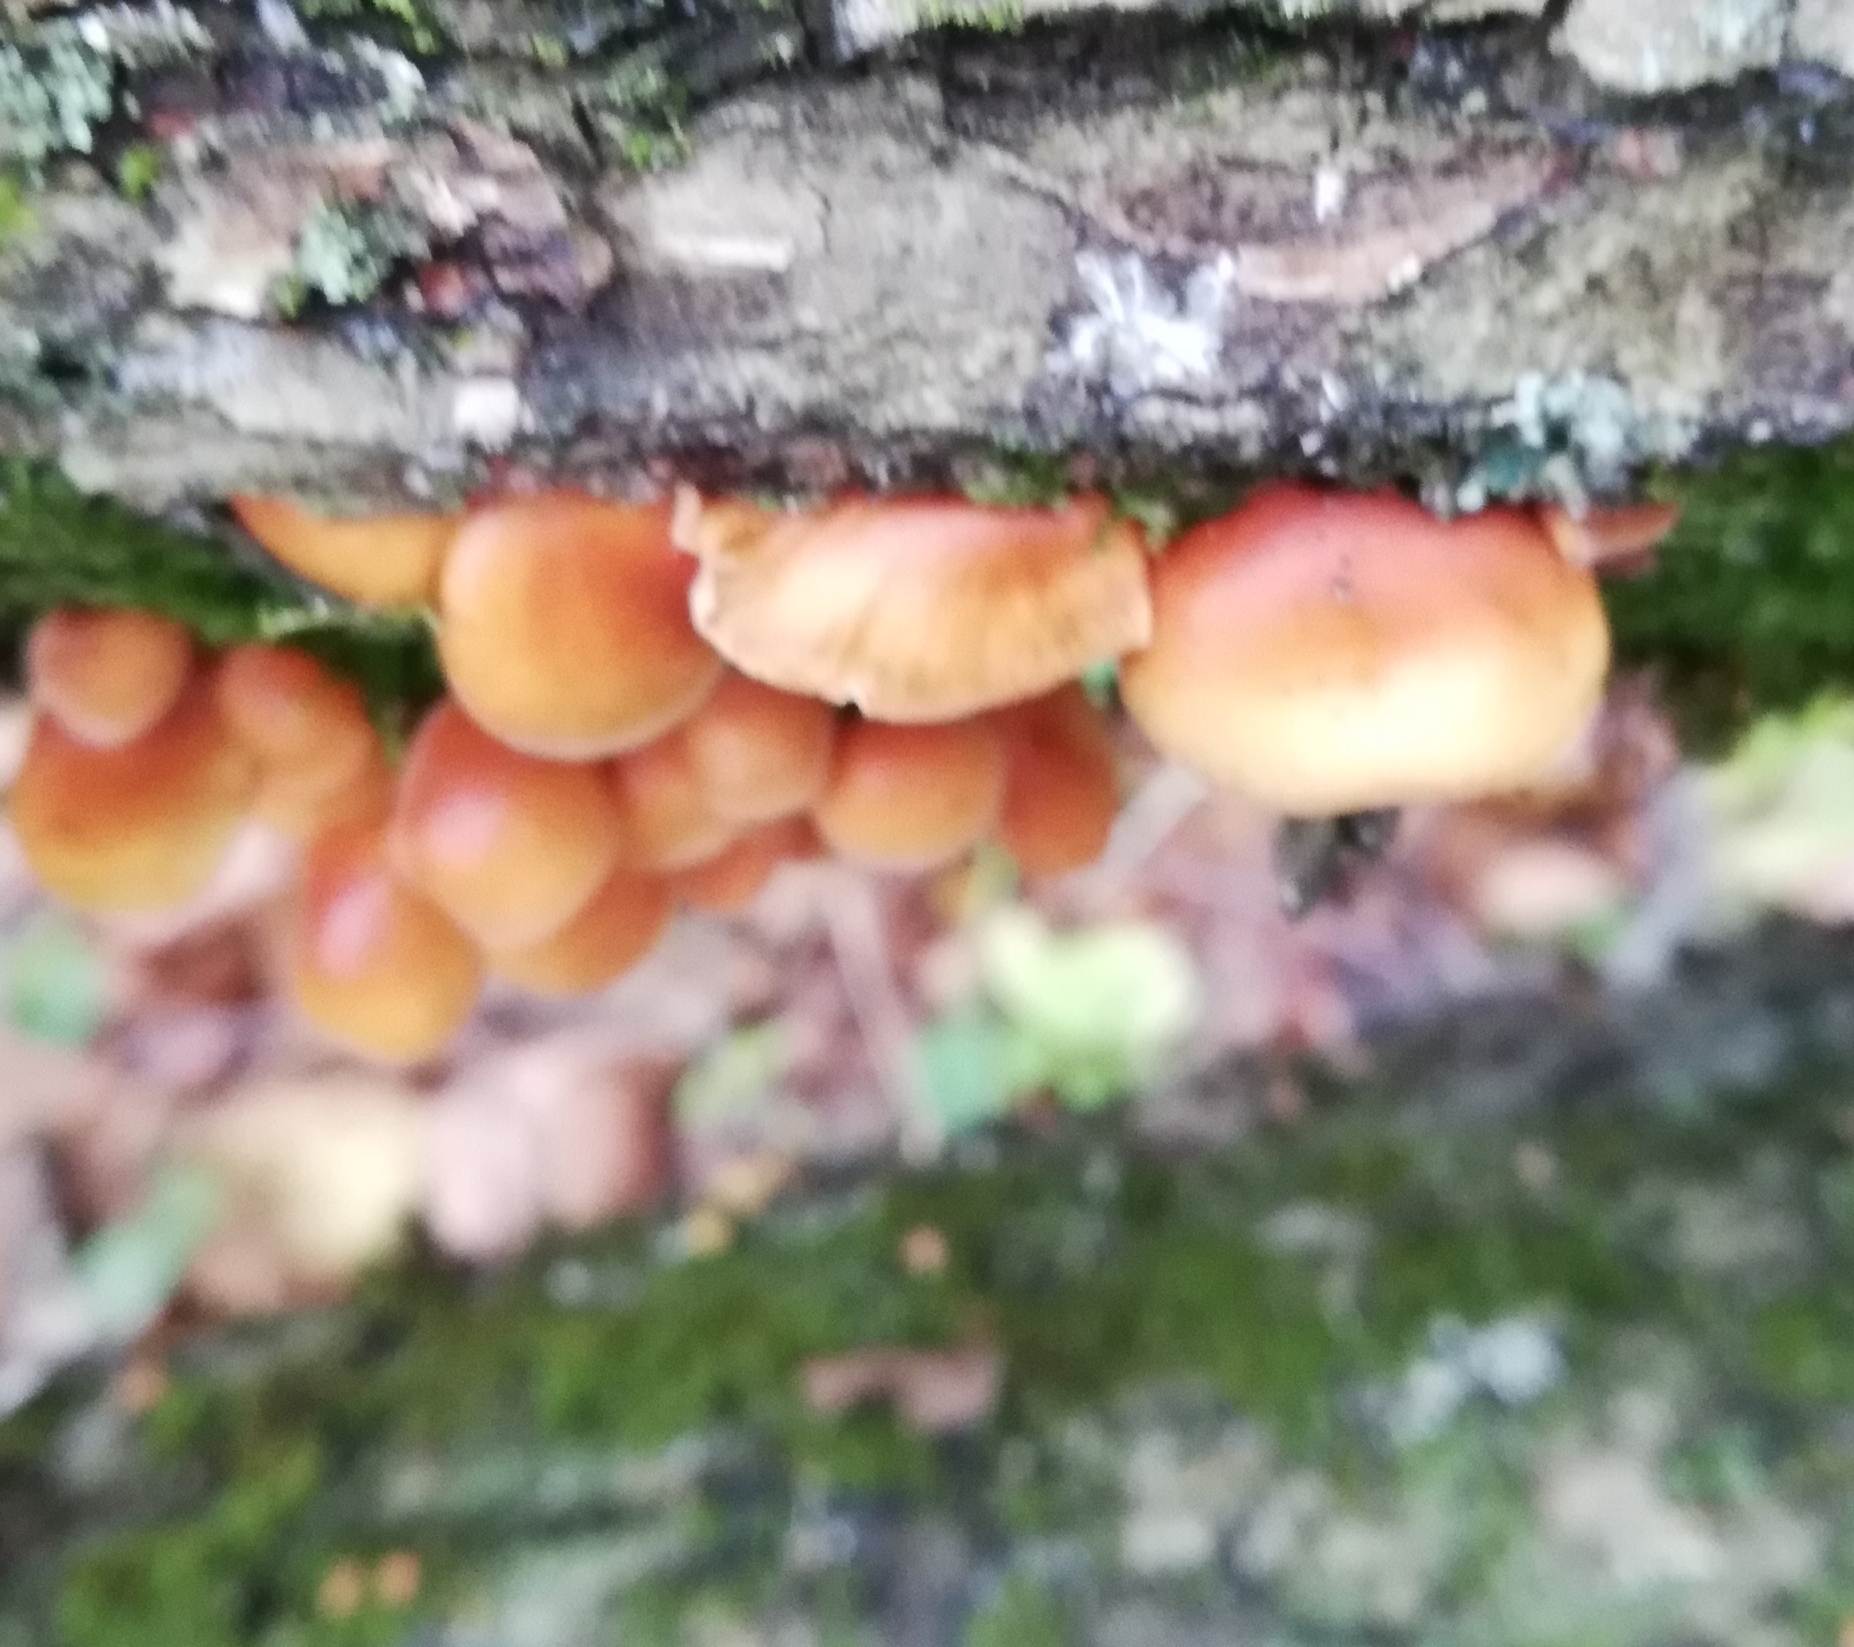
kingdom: Fungi
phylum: Basidiomycota
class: Agaricomycetes
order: Agaricales
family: Physalacriaceae
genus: Flammulina
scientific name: Flammulina
